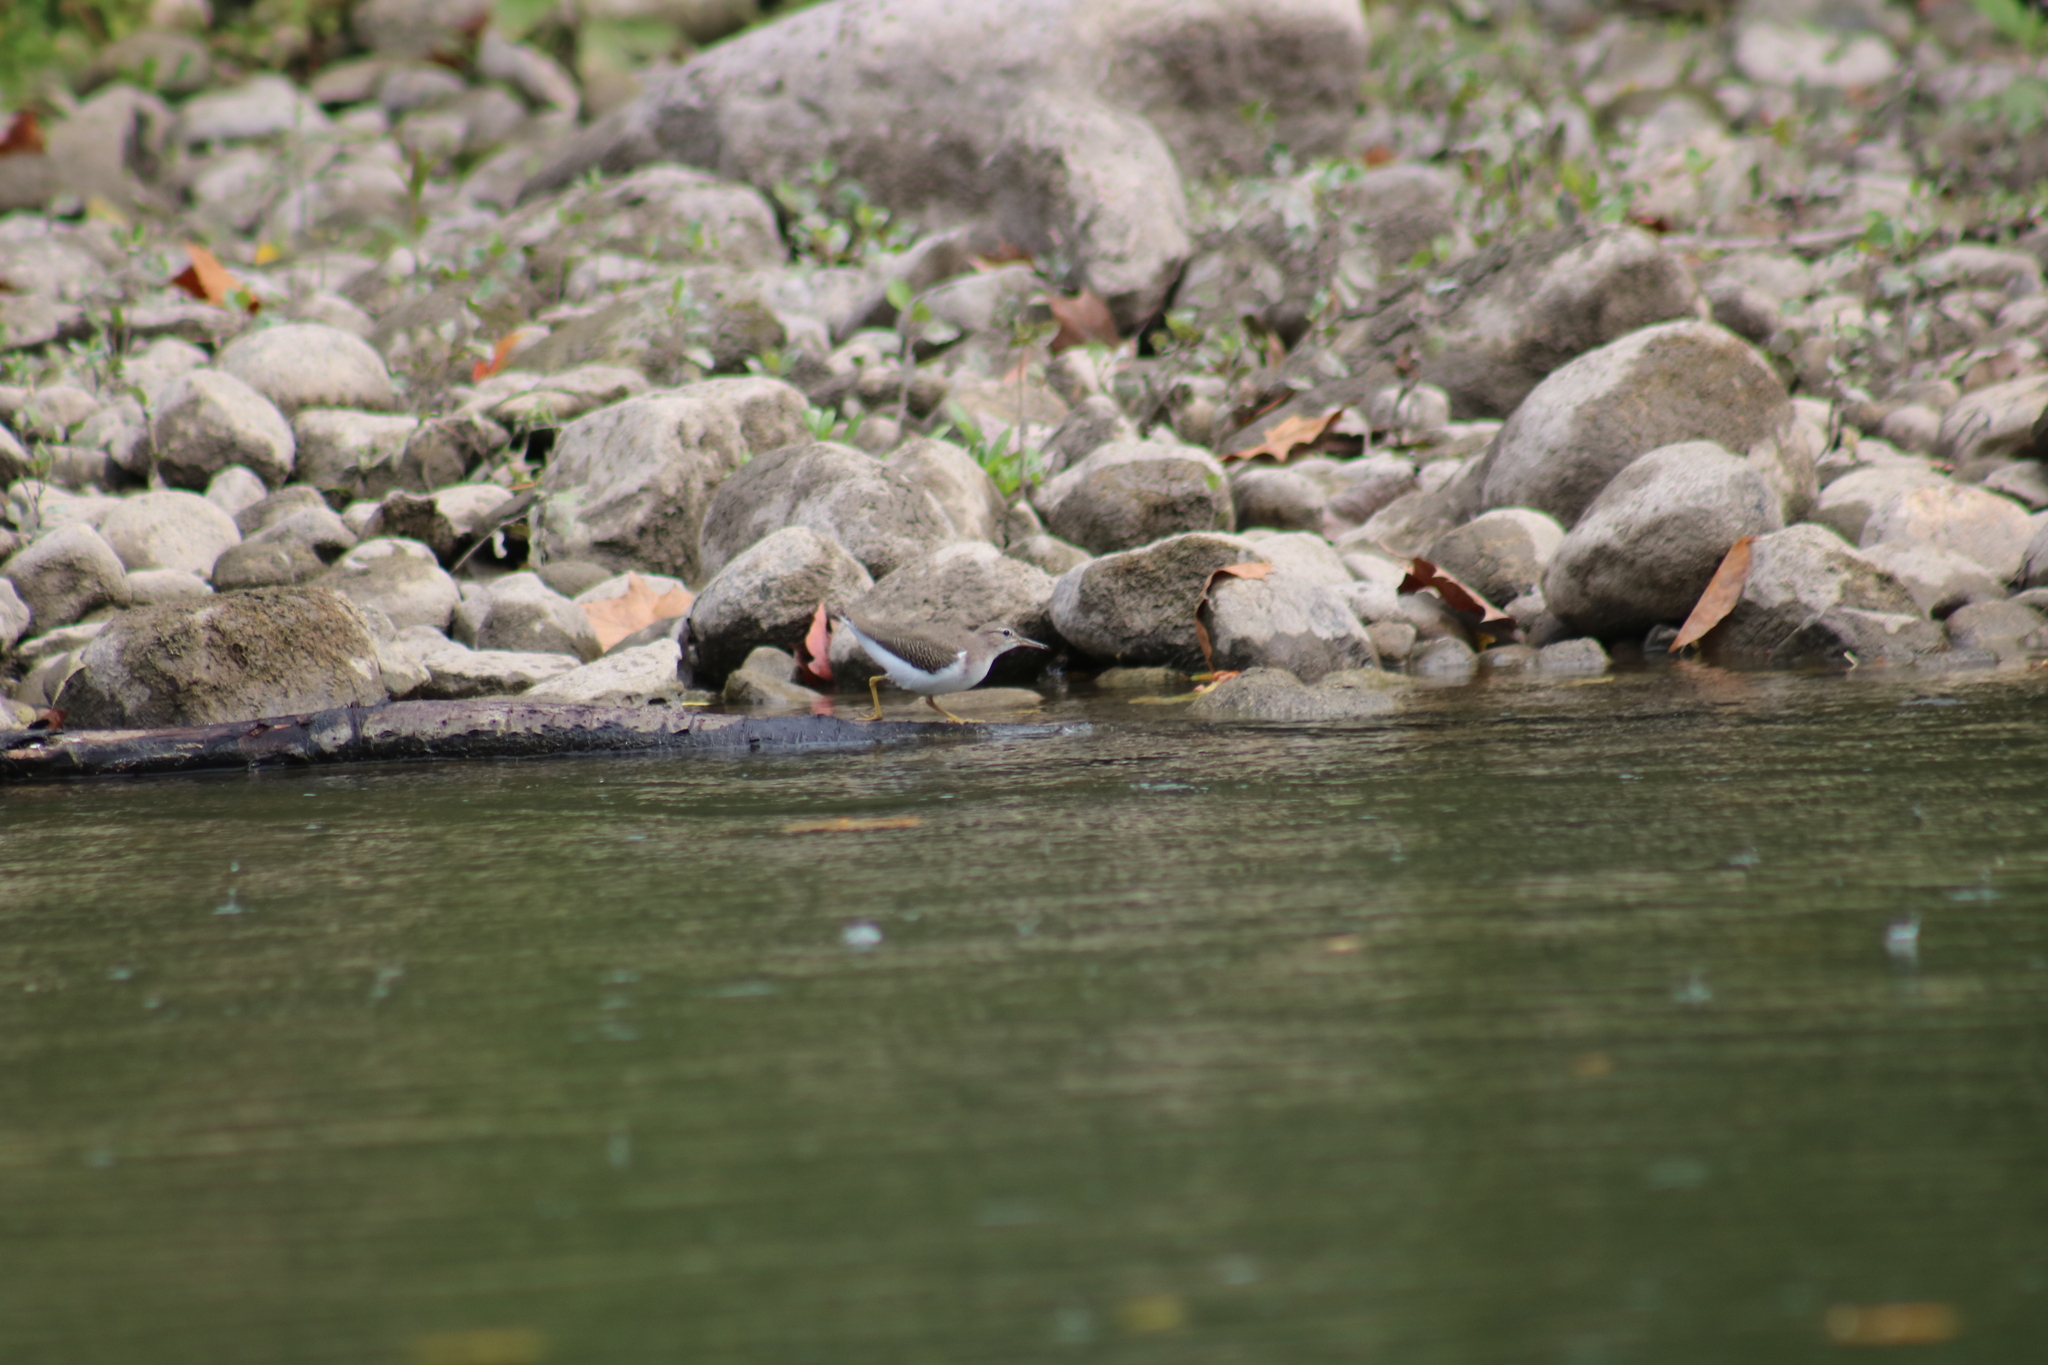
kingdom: Animalia
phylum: Chordata
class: Aves
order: Charadriiformes
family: Scolopacidae
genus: Actitis
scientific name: Actitis macularius
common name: Spotted sandpiper
